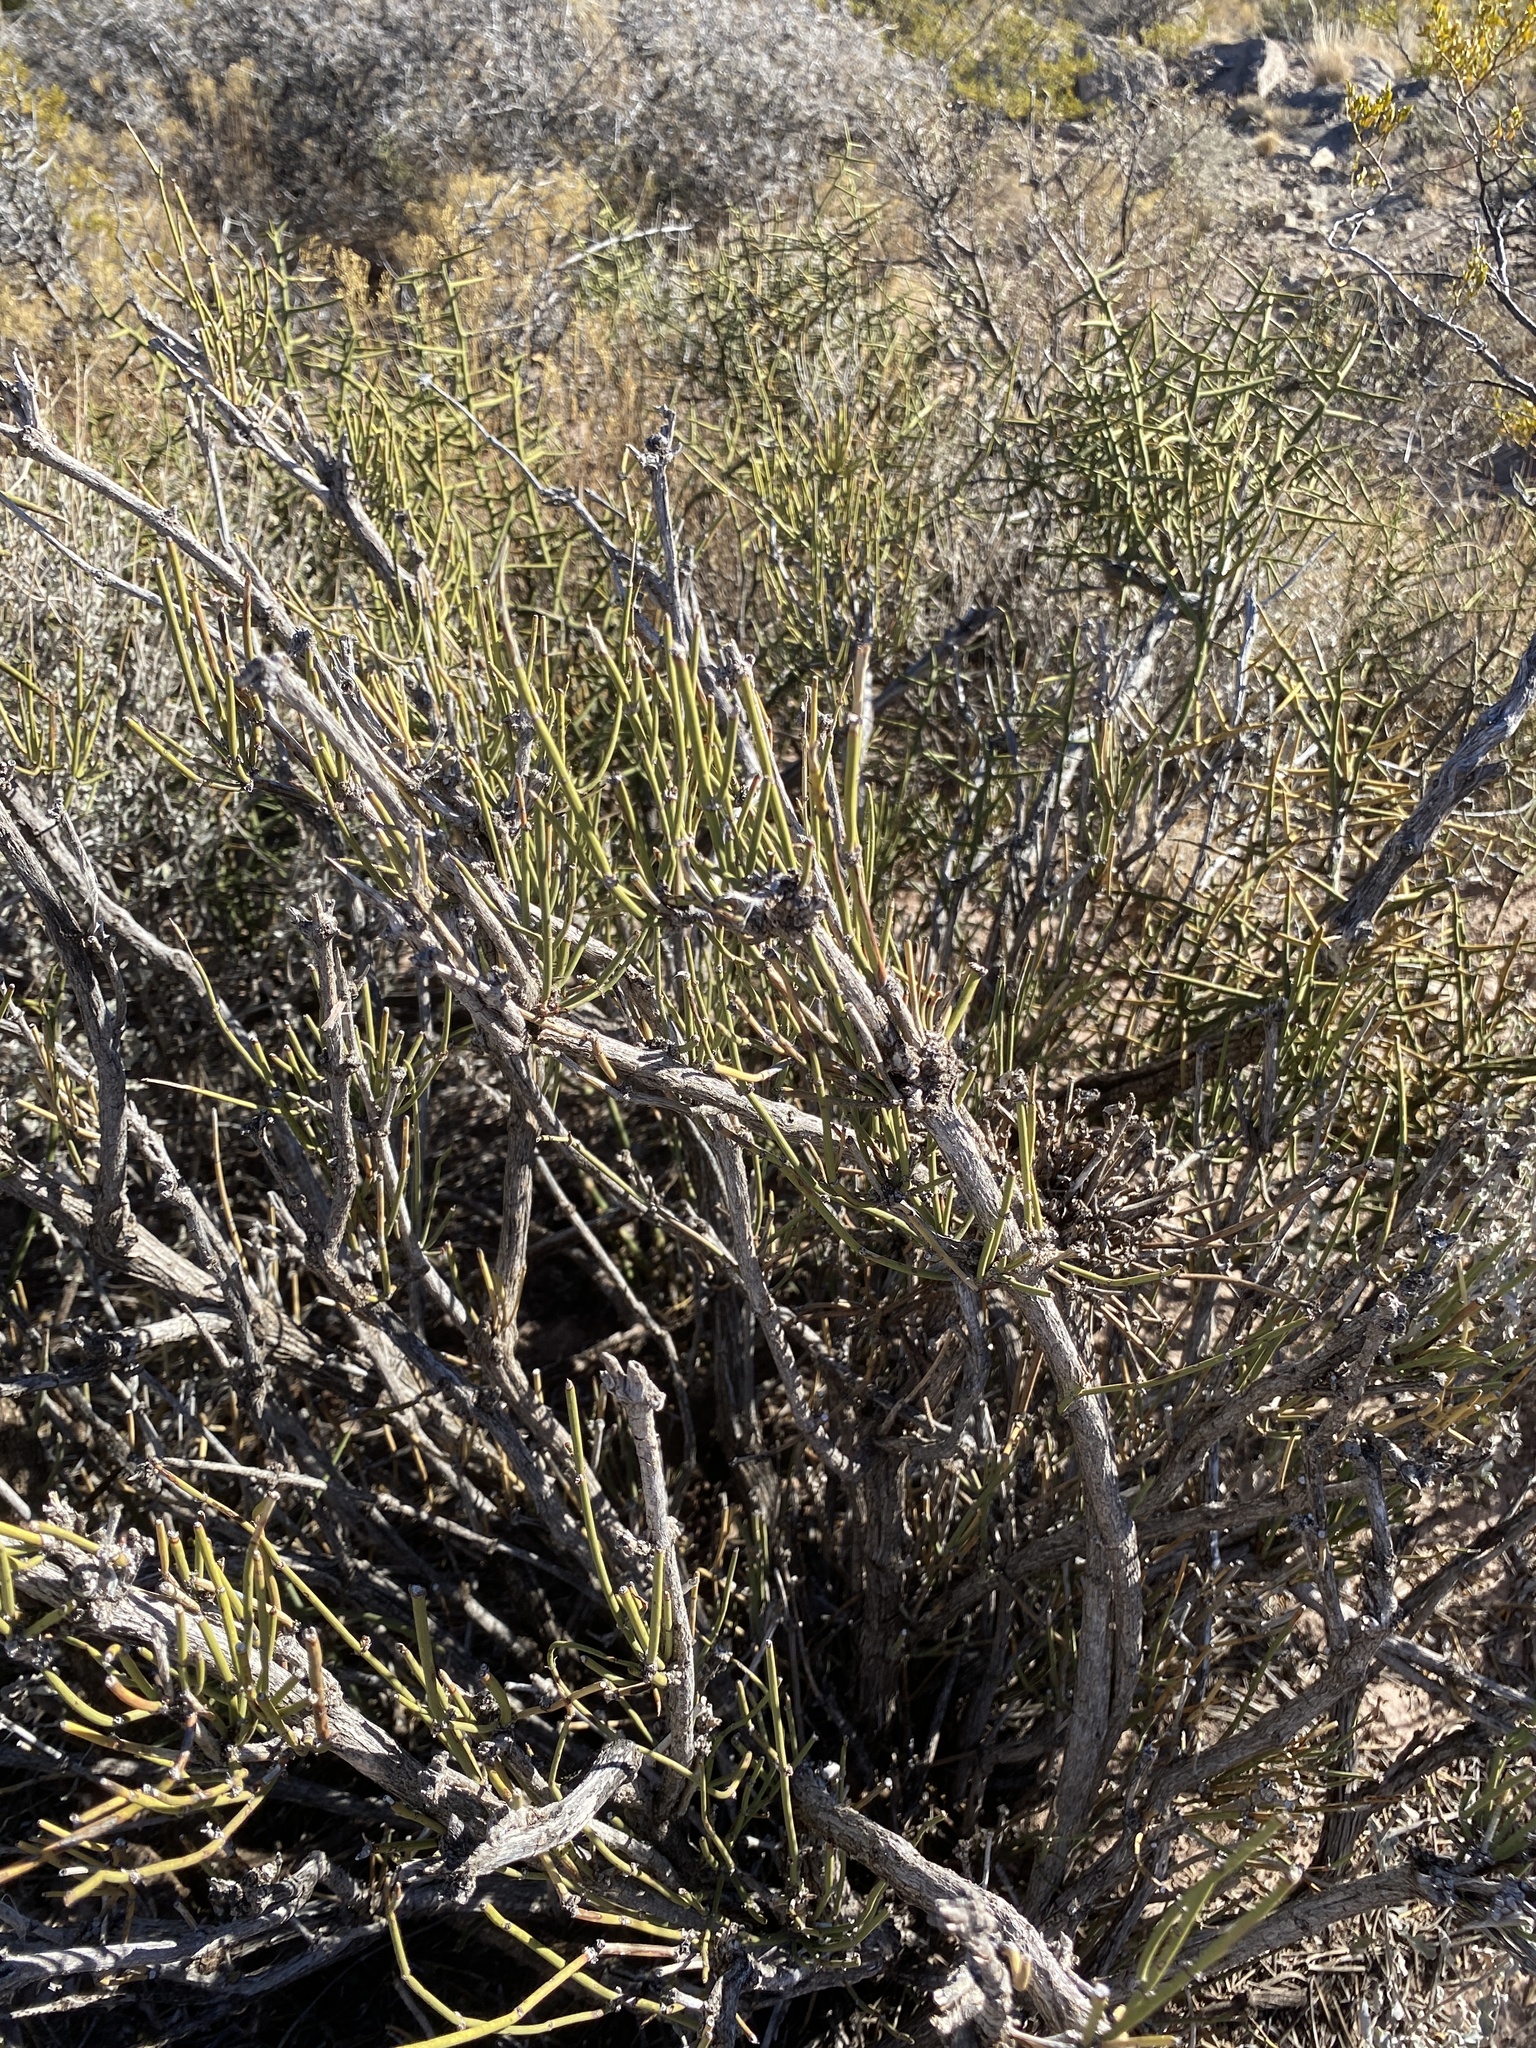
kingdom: Plantae
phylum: Tracheophyta
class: Gnetopsida
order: Ephedrales
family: Ephedraceae
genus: Ephedra
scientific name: Ephedra trifurca
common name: Mexican-tea
